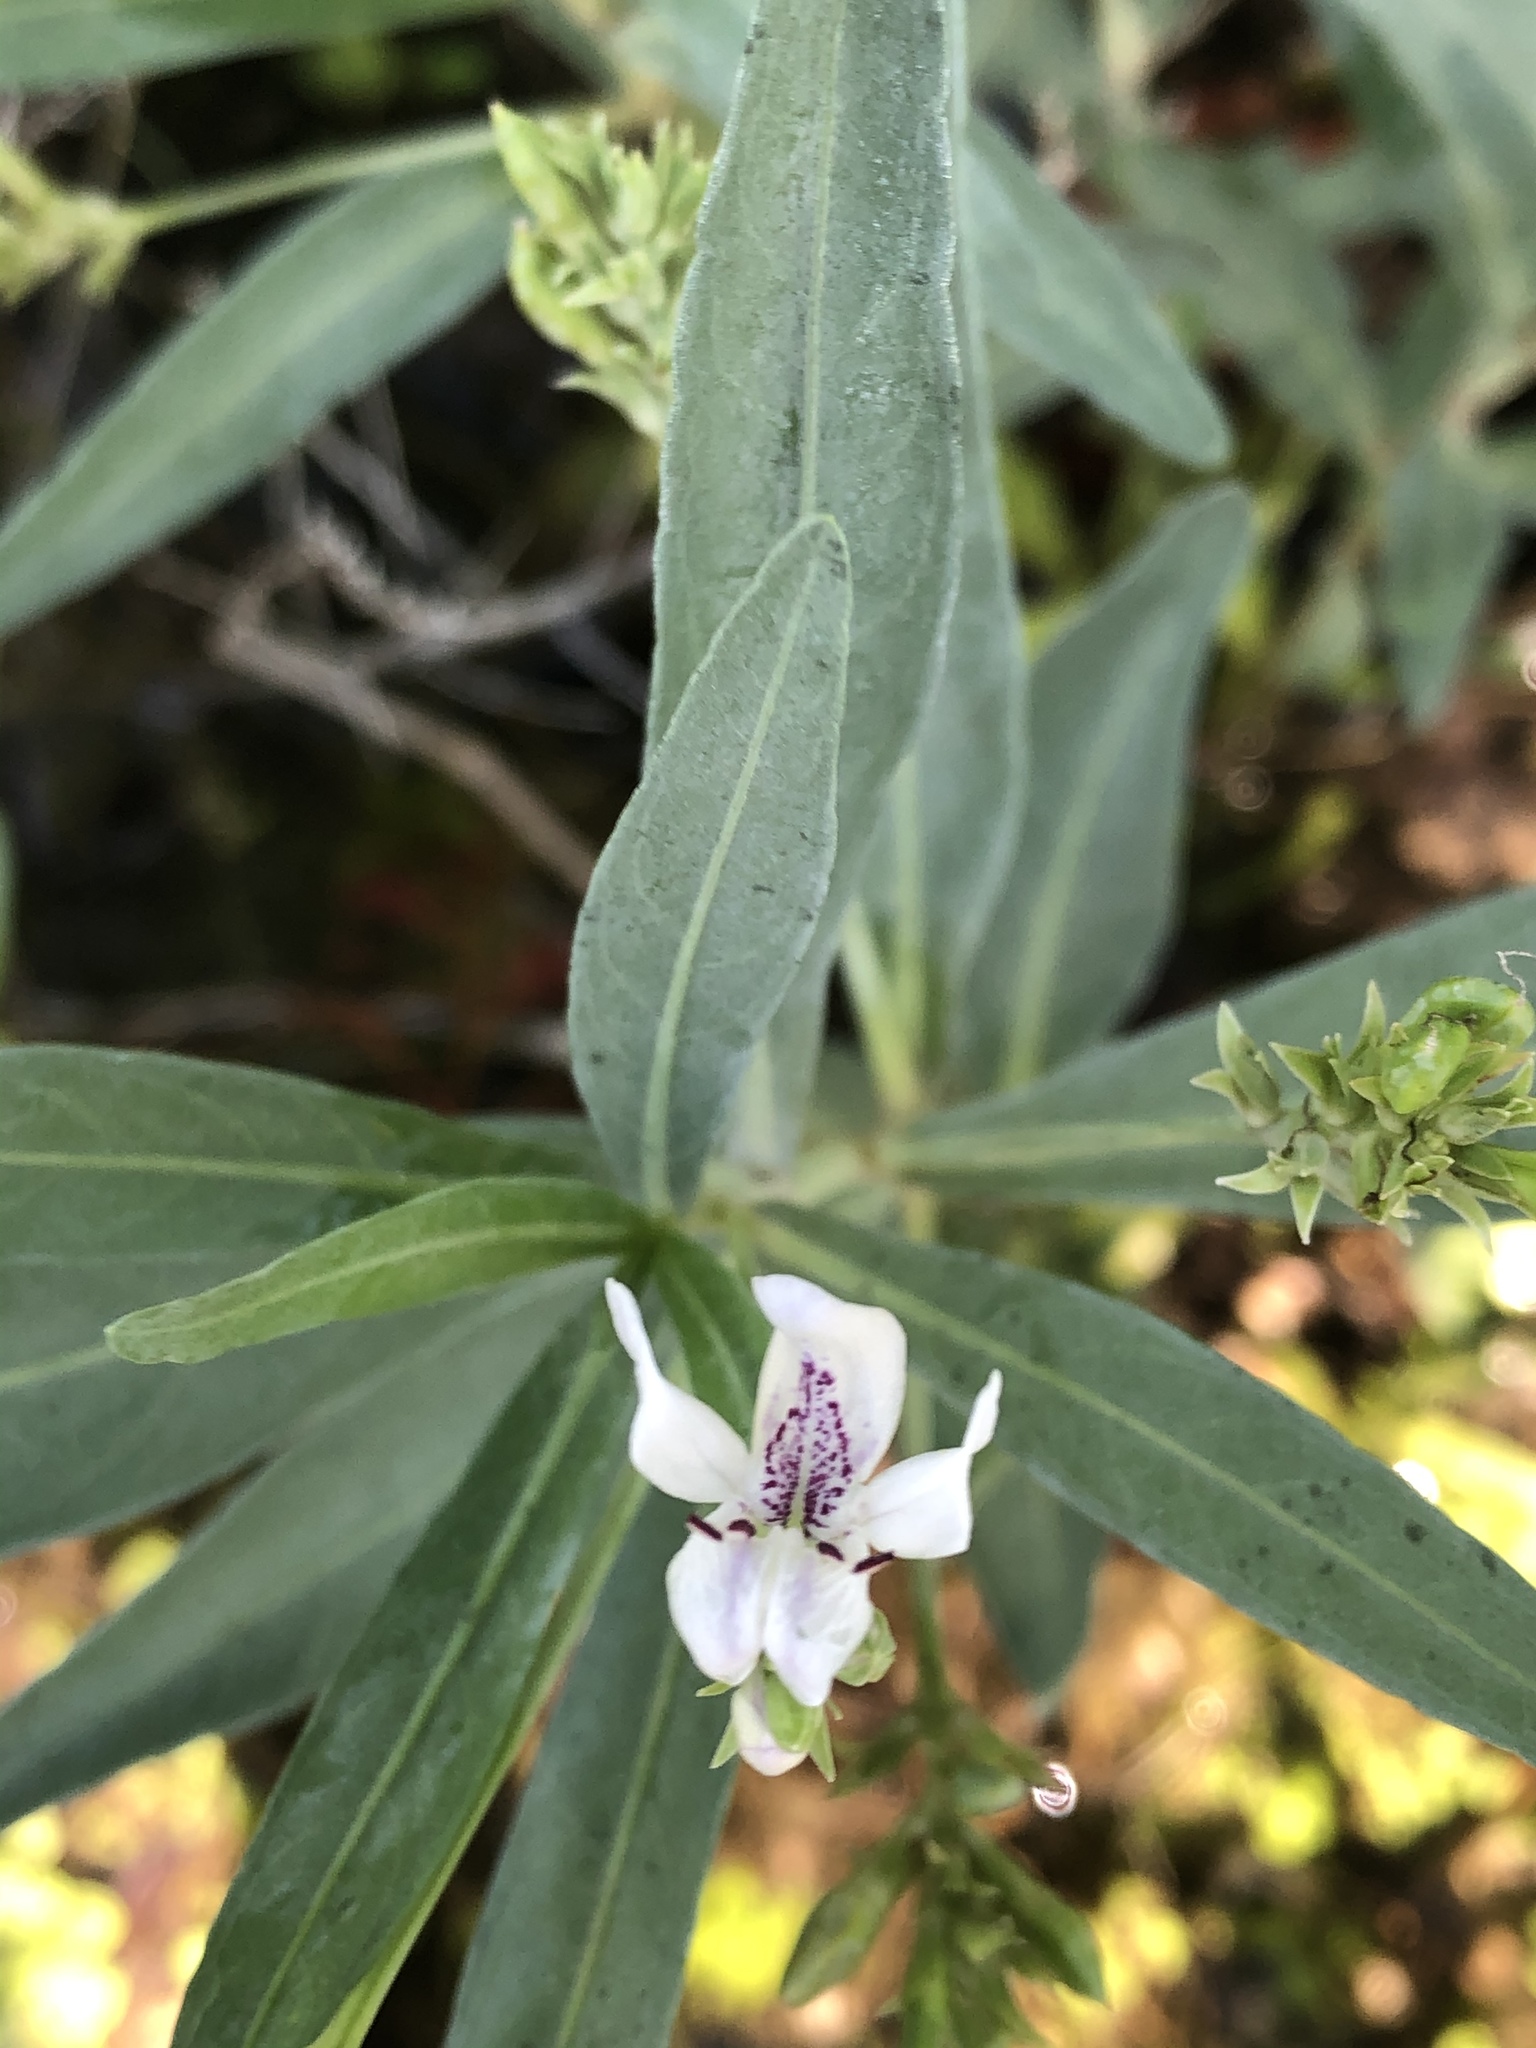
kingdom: Plantae
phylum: Tracheophyta
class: Magnoliopsida
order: Lamiales
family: Acanthaceae
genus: Dianthera
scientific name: Dianthera americana
